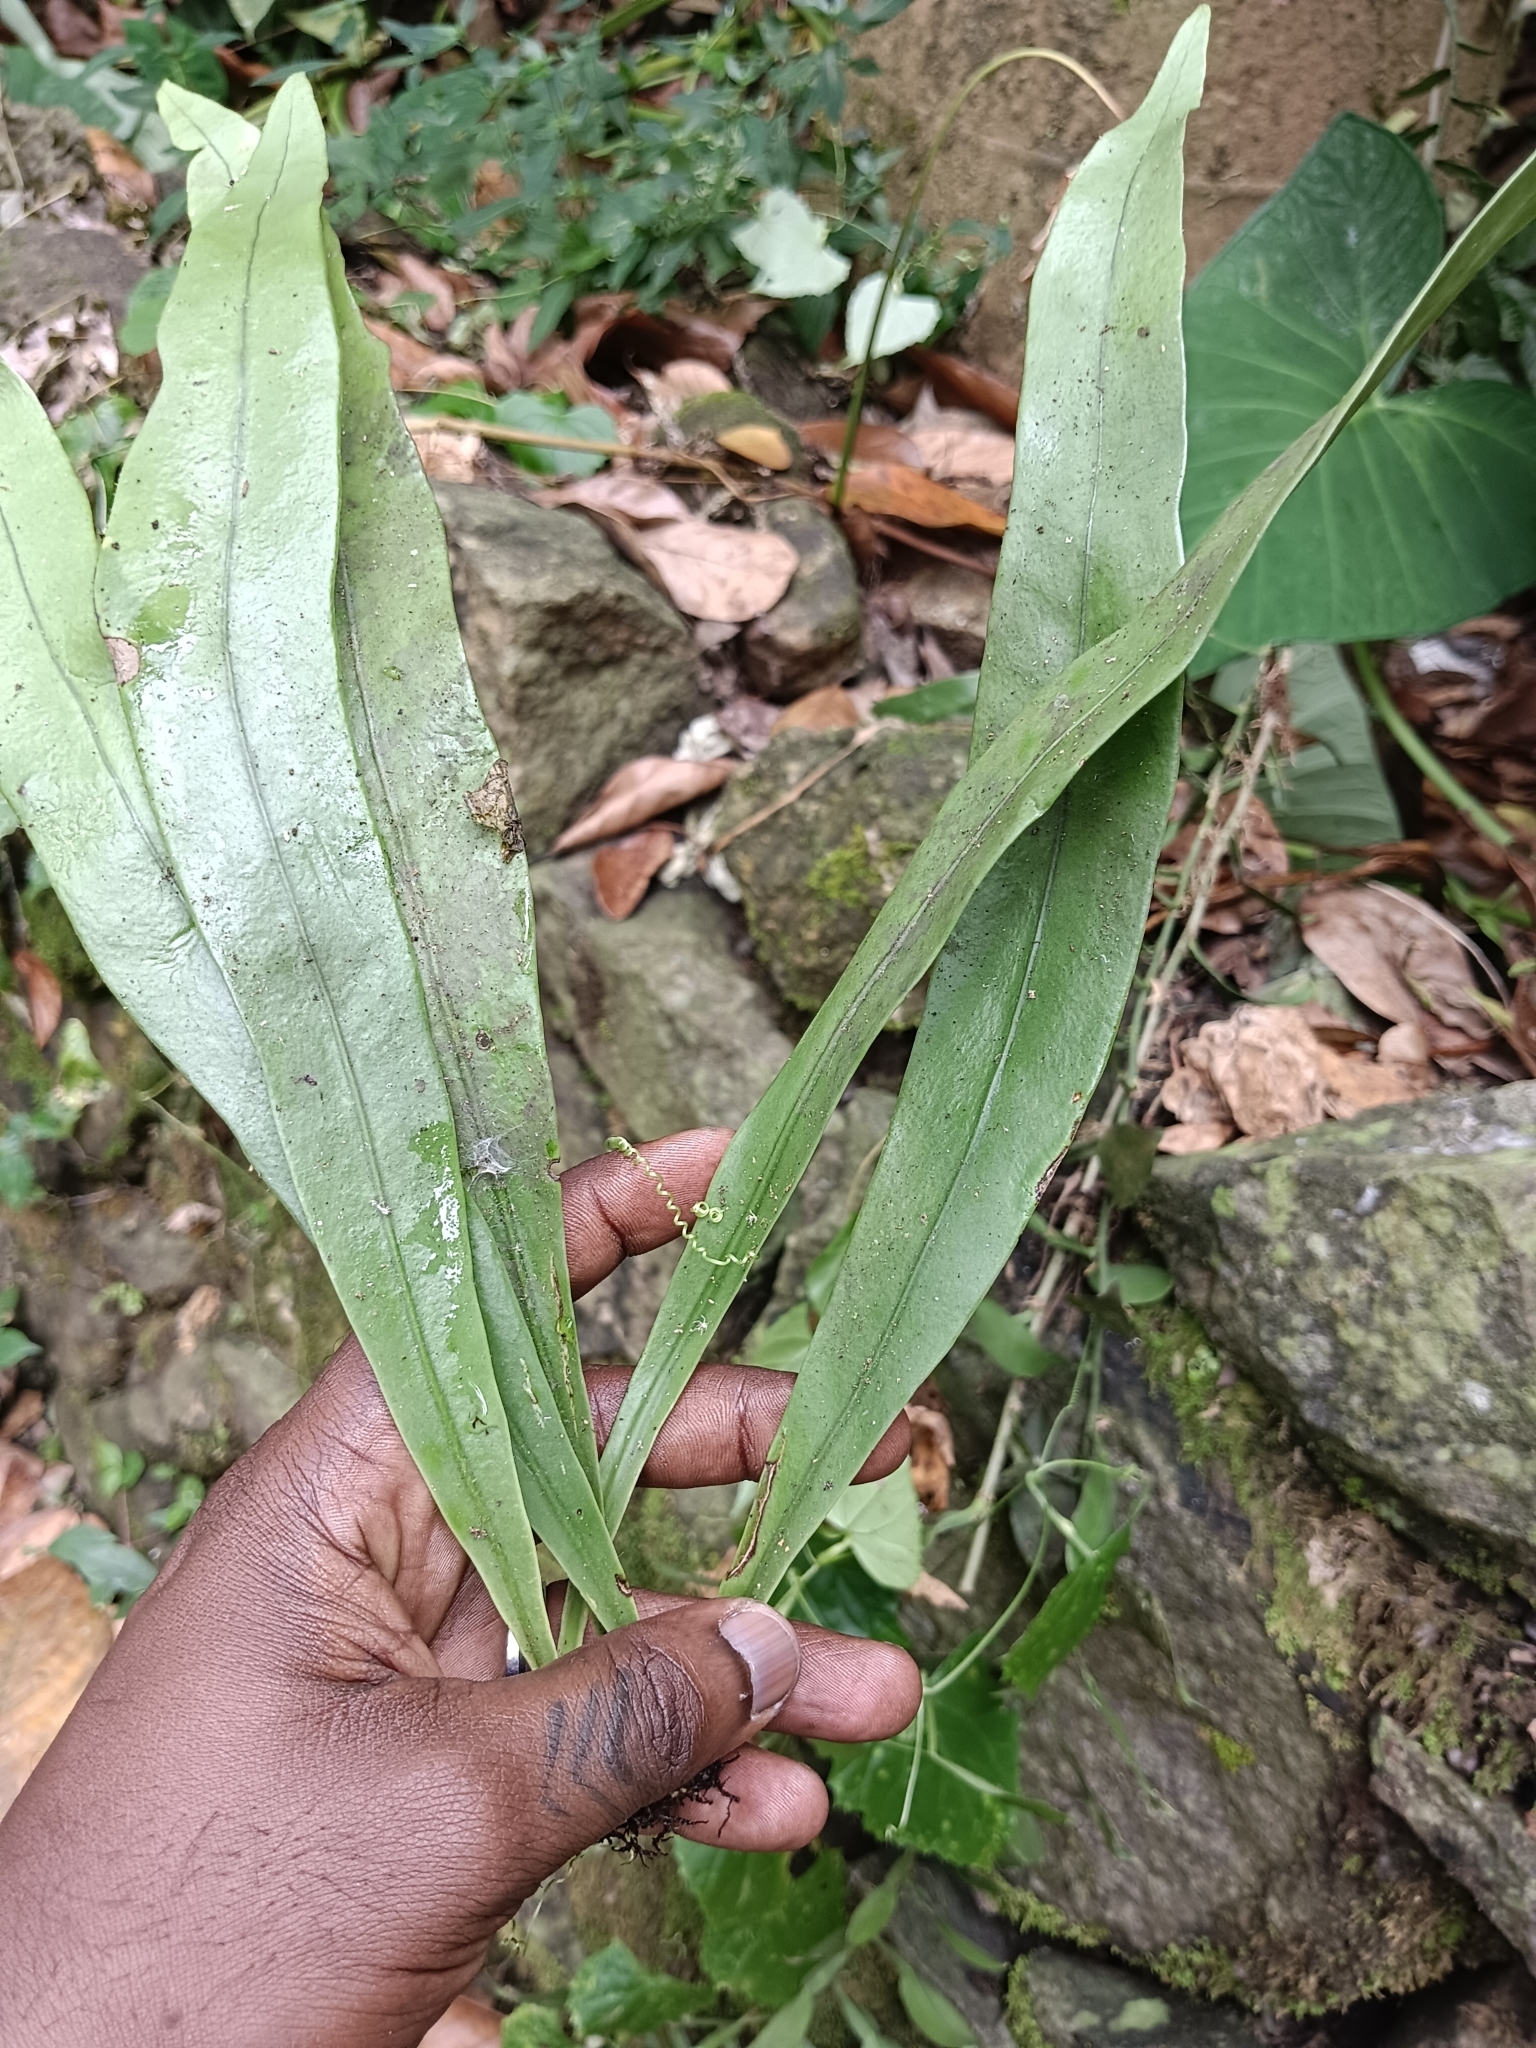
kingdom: Plantae
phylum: Tracheophyta
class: Polypodiopsida
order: Polypodiales
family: Polypodiaceae
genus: Microsorum
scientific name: Microsorum punctatum
